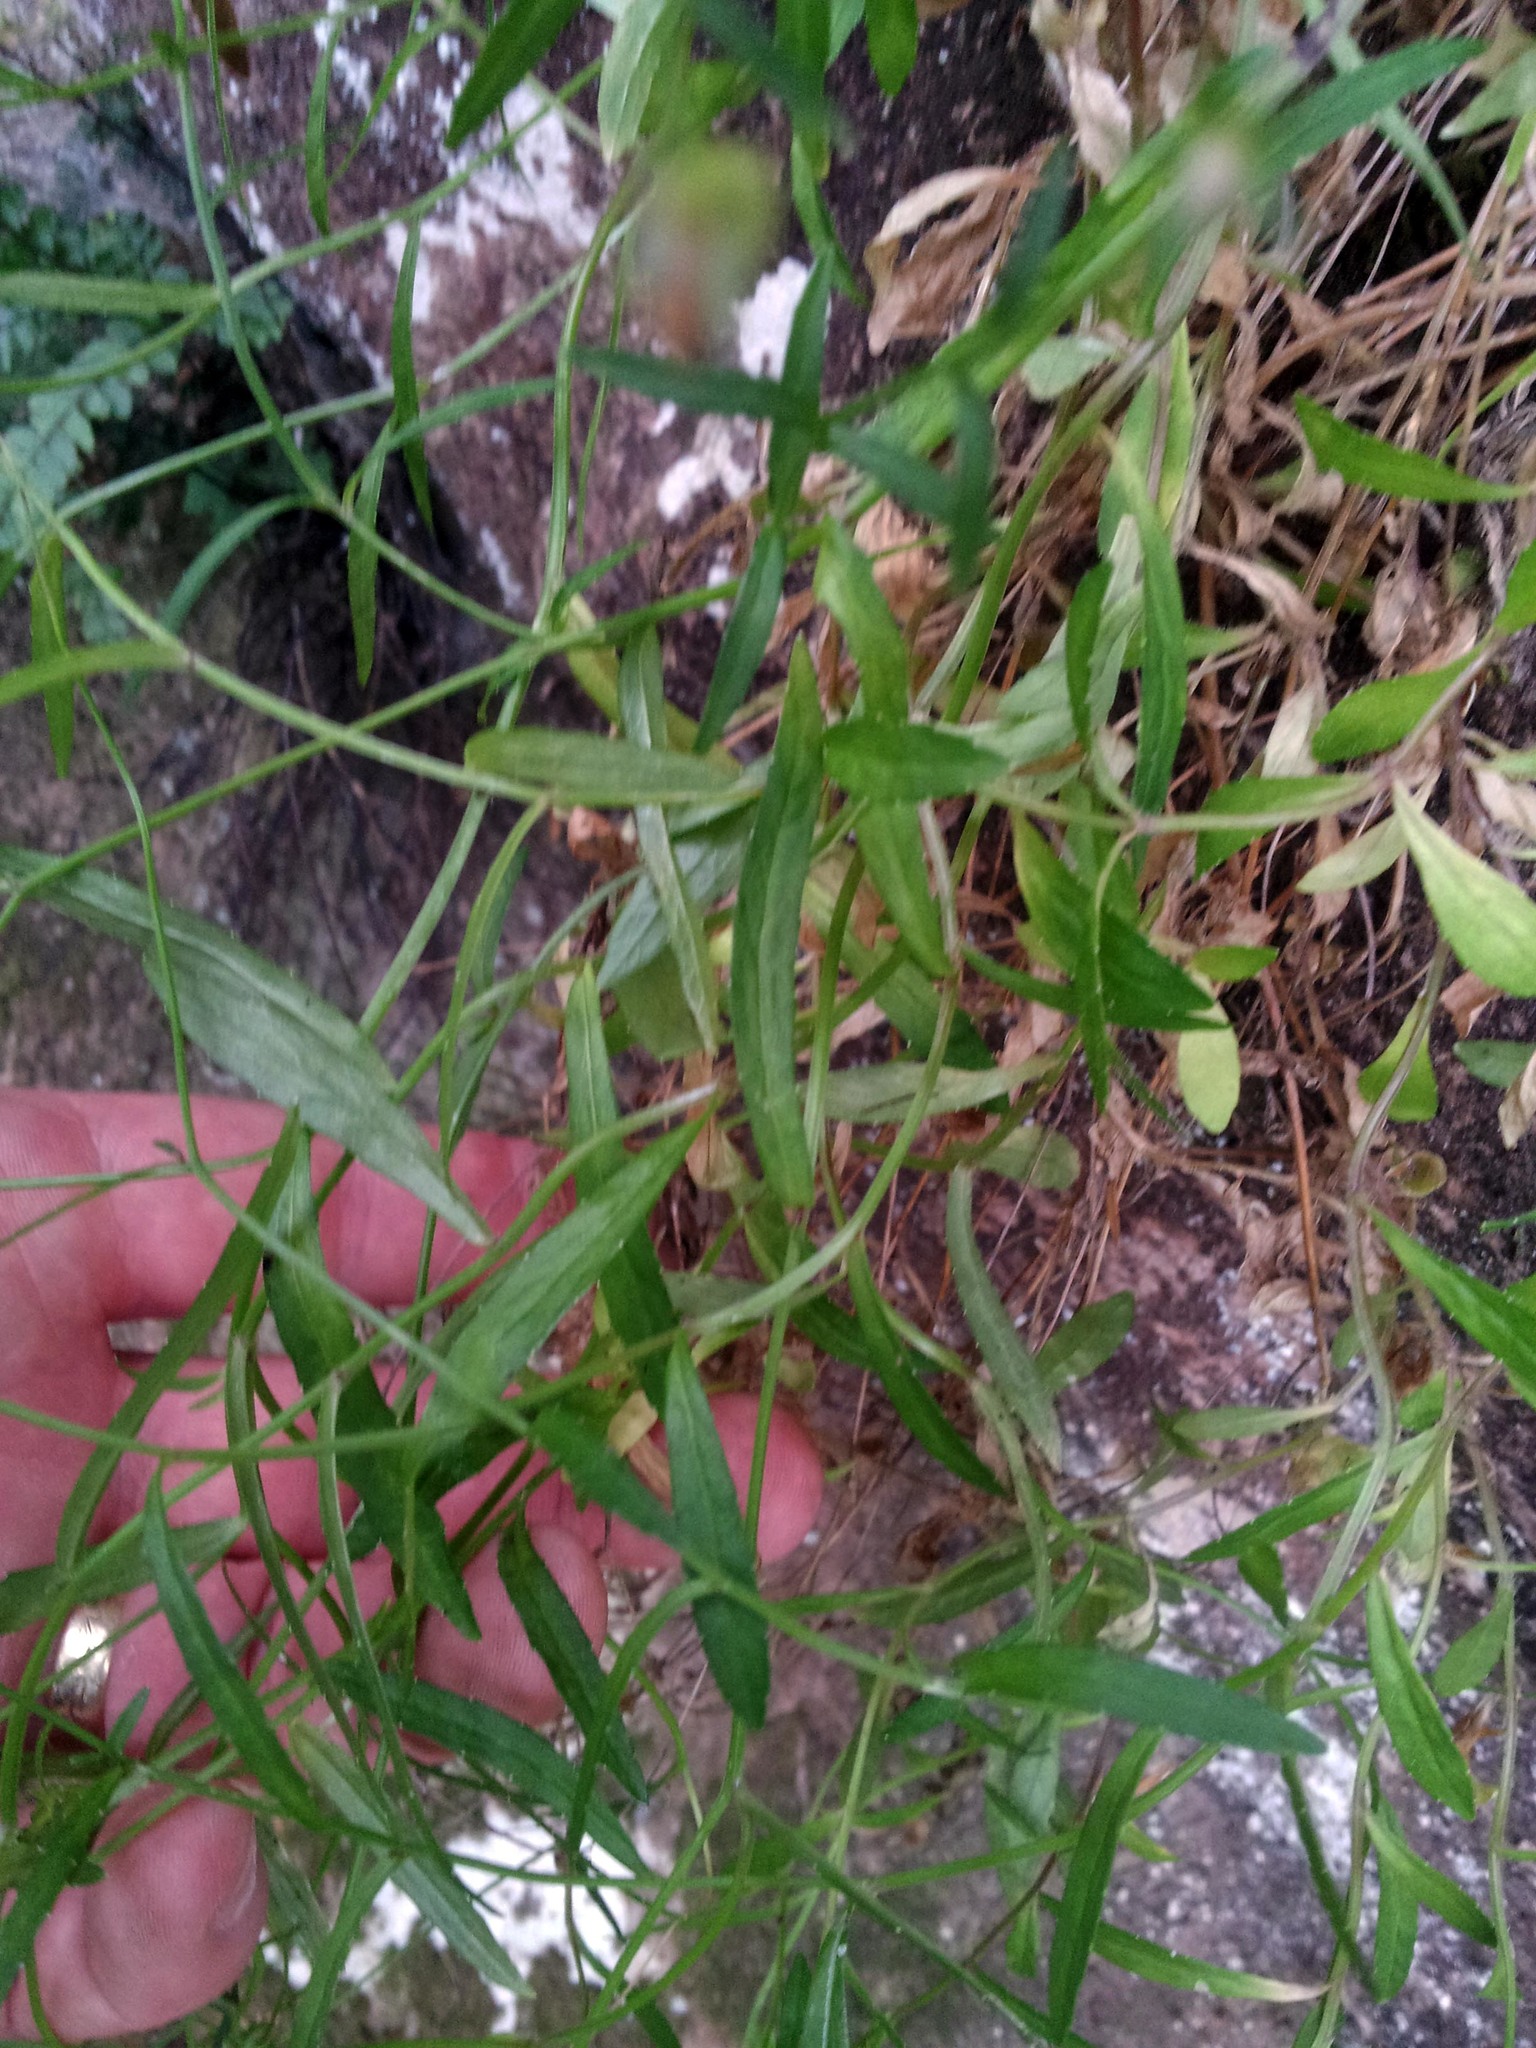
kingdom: Plantae
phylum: Tracheophyta
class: Magnoliopsida
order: Asterales
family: Campanulaceae
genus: Wahlenbergia
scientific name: Wahlenbergia vernicosa
